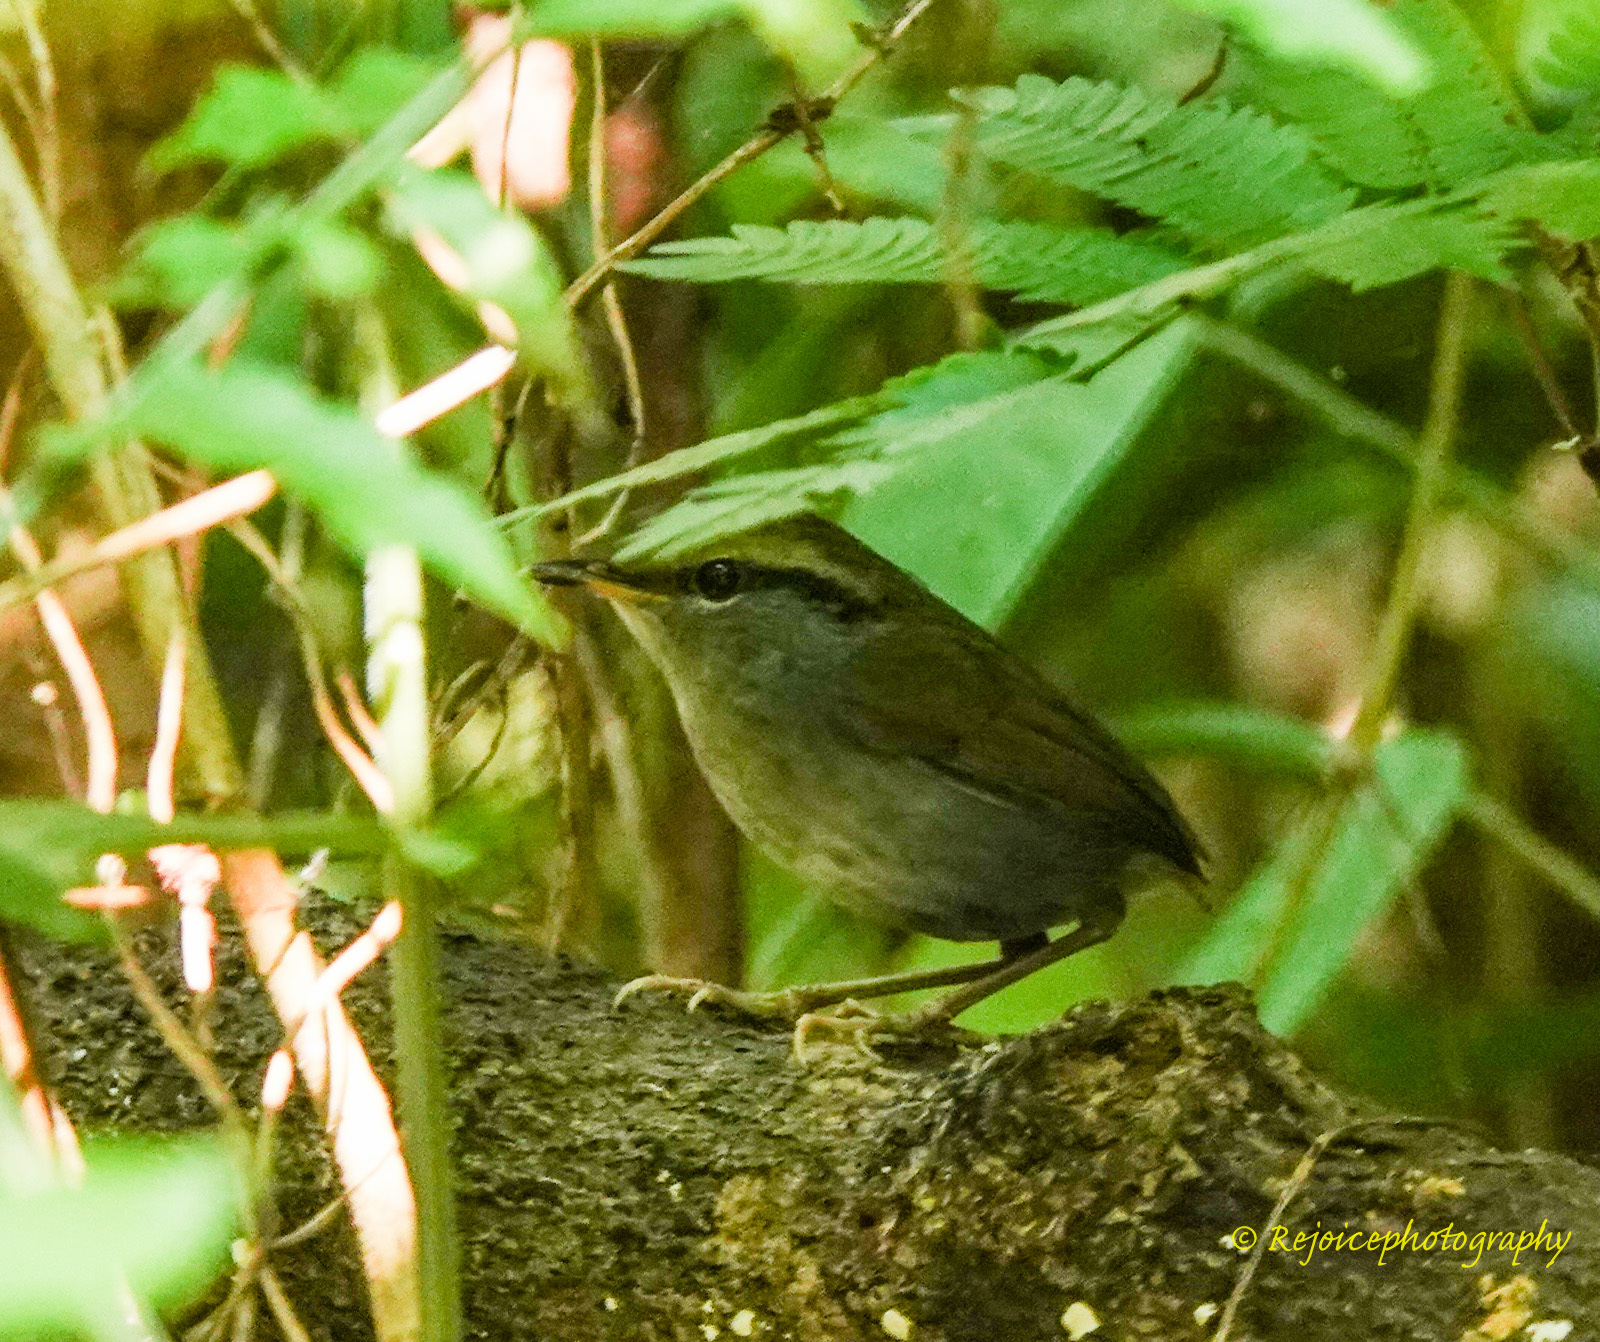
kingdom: Animalia
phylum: Chordata
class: Aves
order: Passeriformes
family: Cettiidae
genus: Tesia
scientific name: Tesia cyaniventer
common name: Grey-bellied tesia
